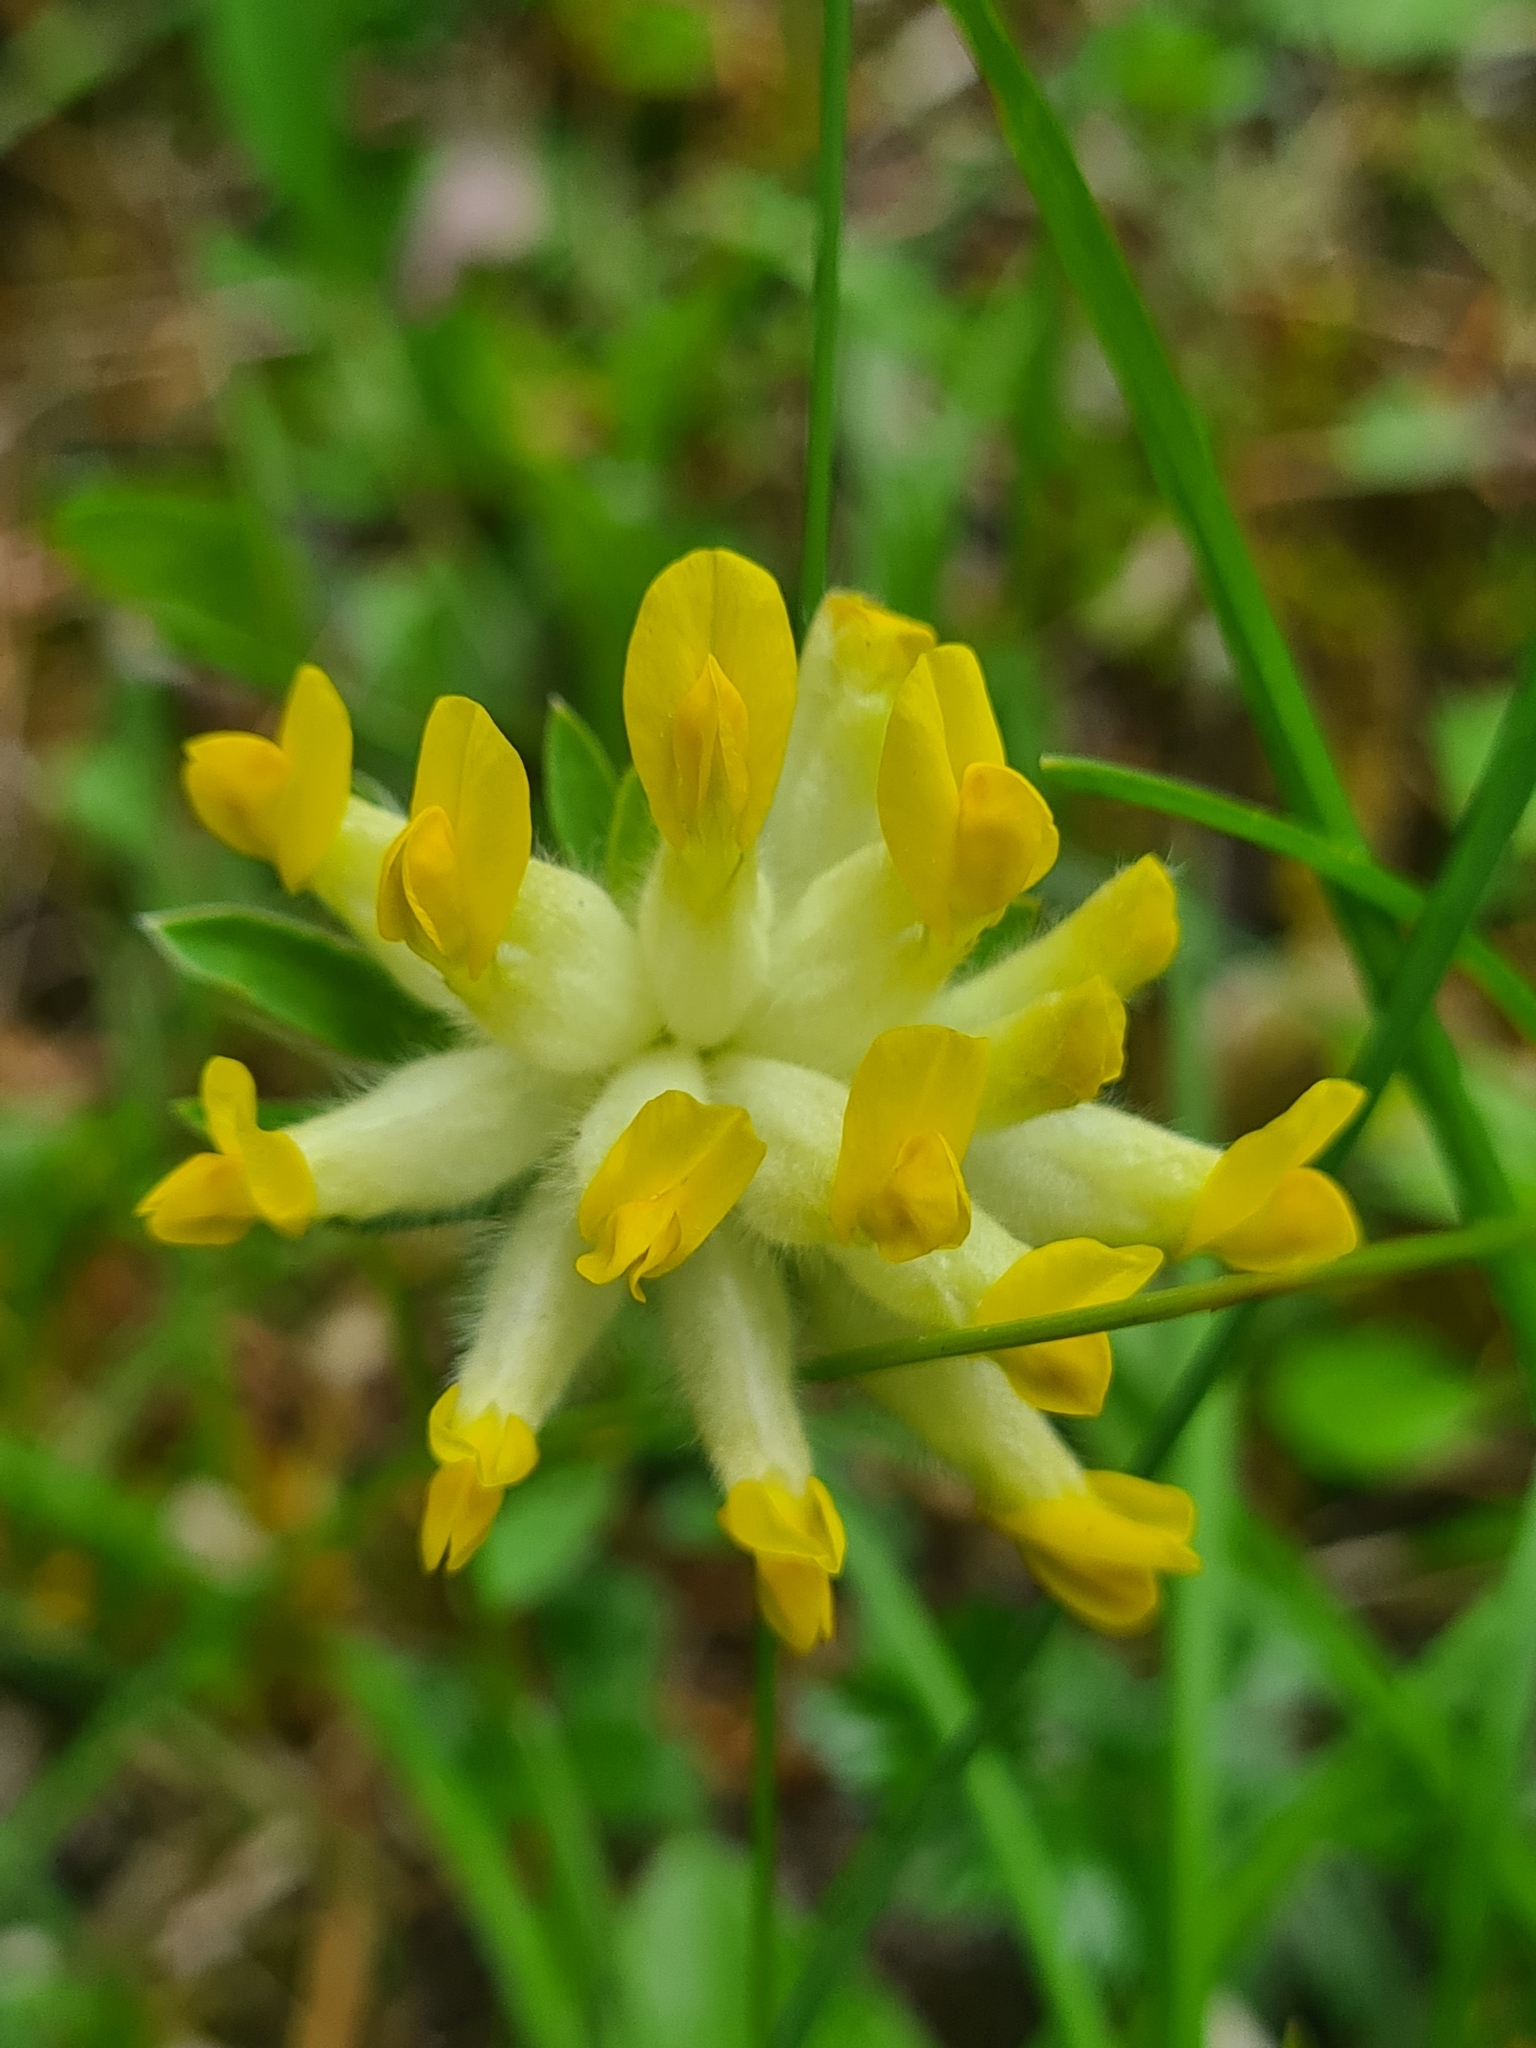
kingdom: Plantae
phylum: Tracheophyta
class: Magnoliopsida
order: Fabales
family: Fabaceae
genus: Anthyllis
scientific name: Anthyllis vulneraria
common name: Kidney vetch
